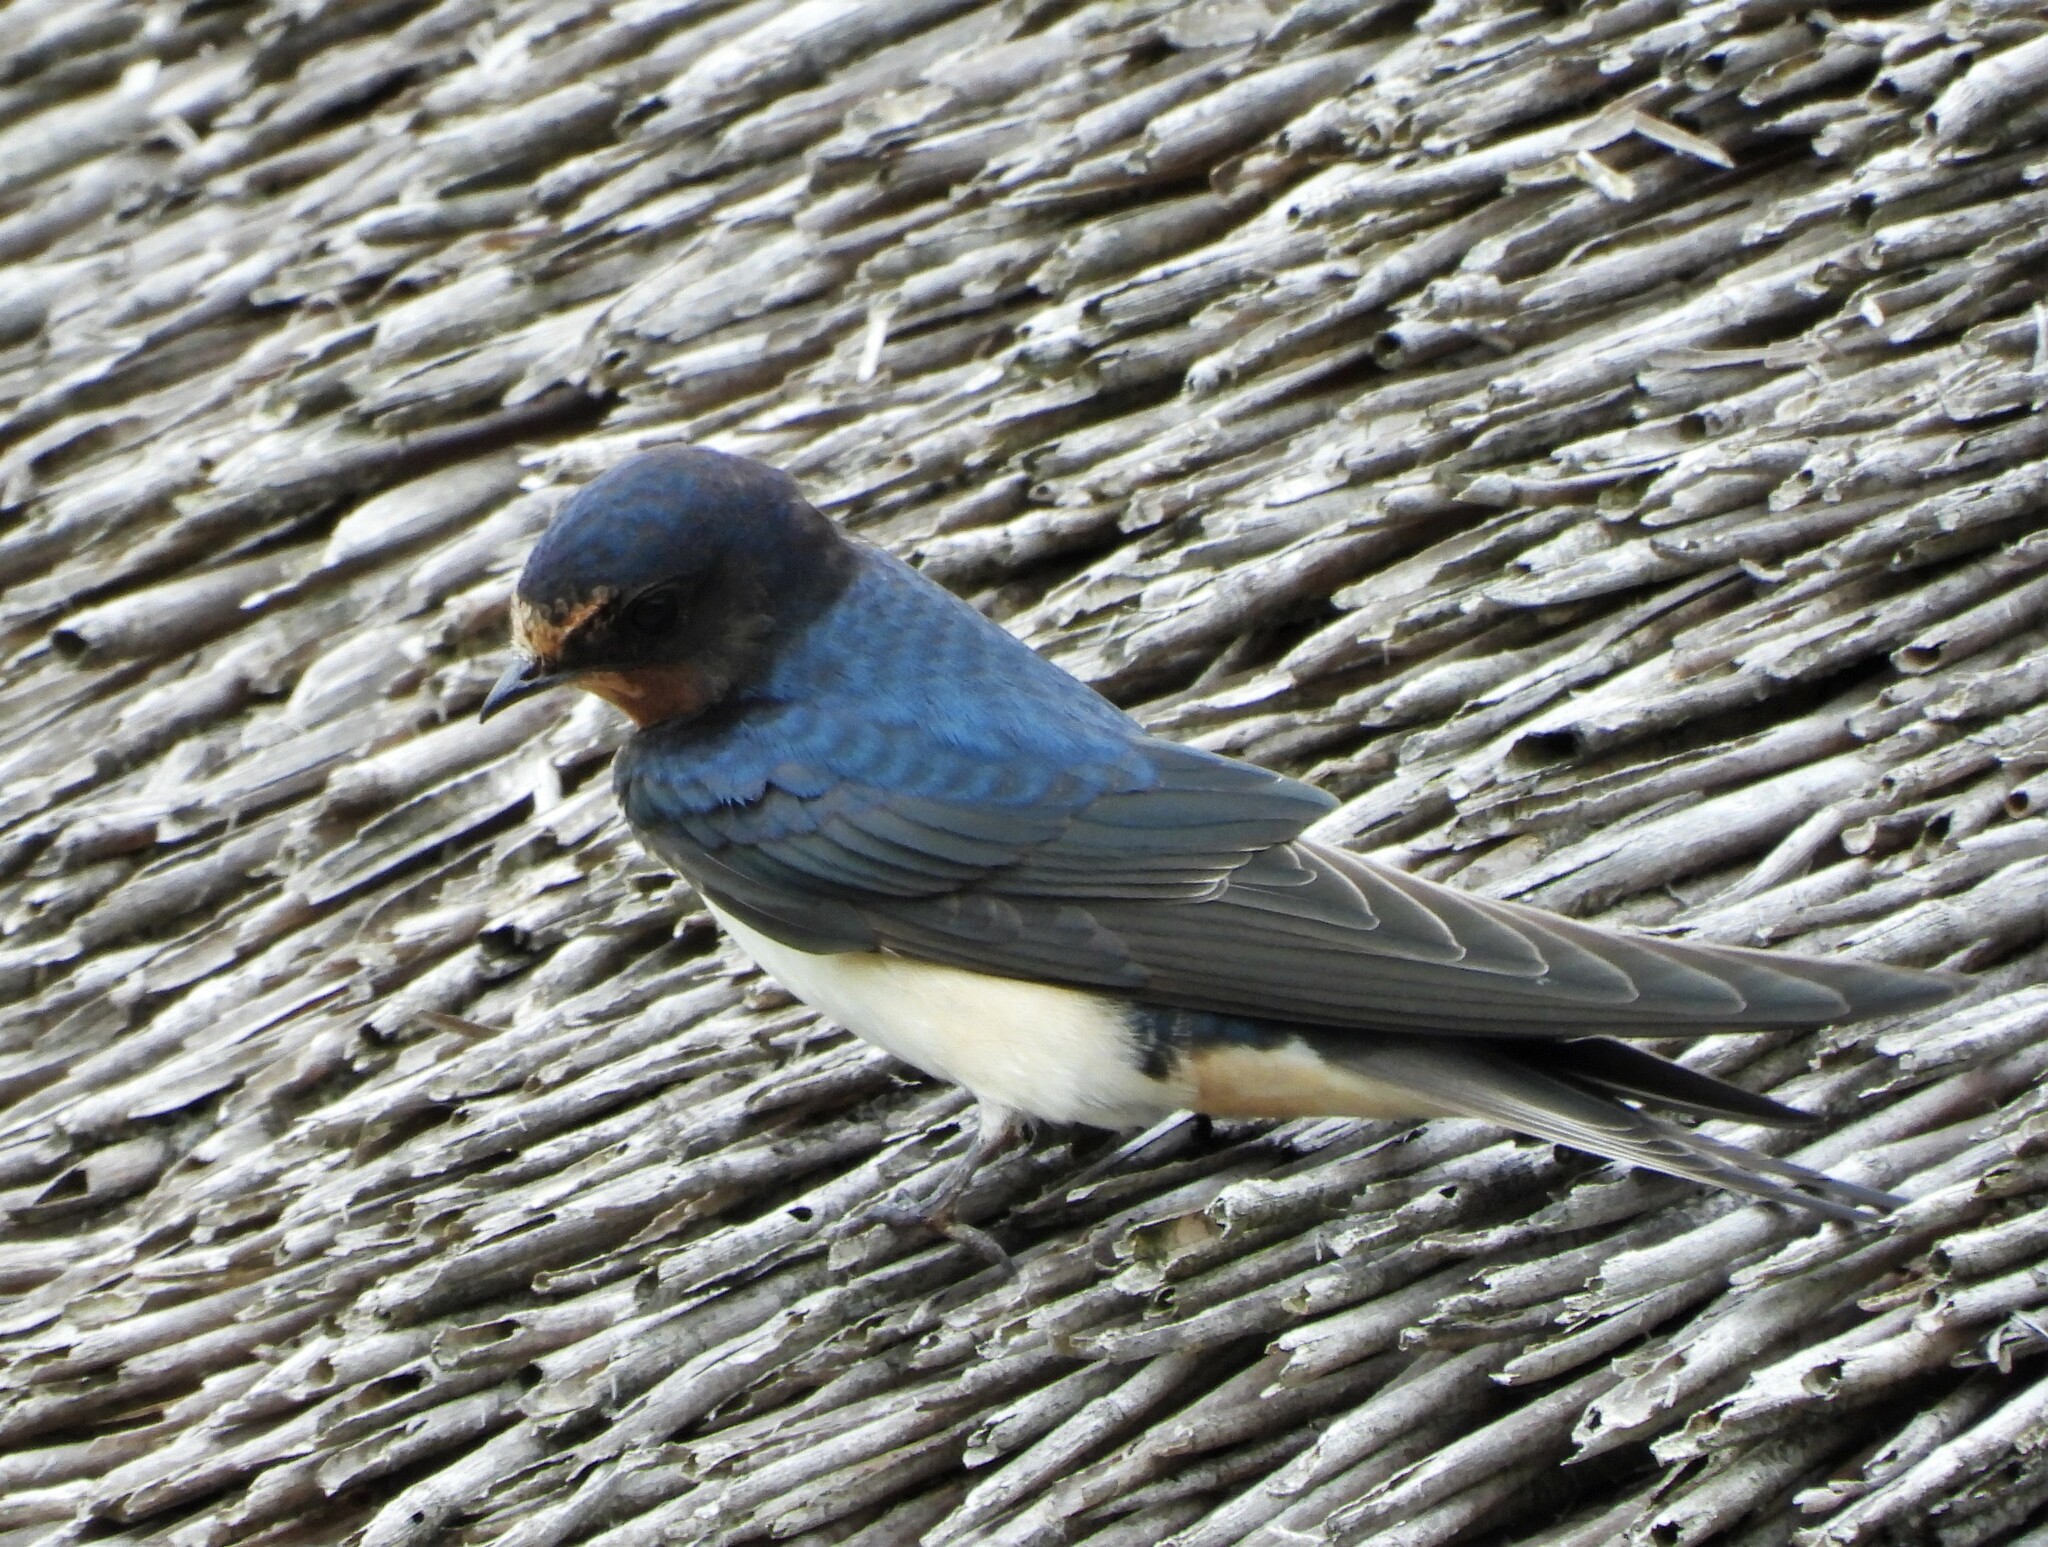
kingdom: Animalia
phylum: Chordata
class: Aves
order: Passeriformes
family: Hirundinidae
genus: Hirundo
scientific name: Hirundo rustica
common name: Barn swallow
